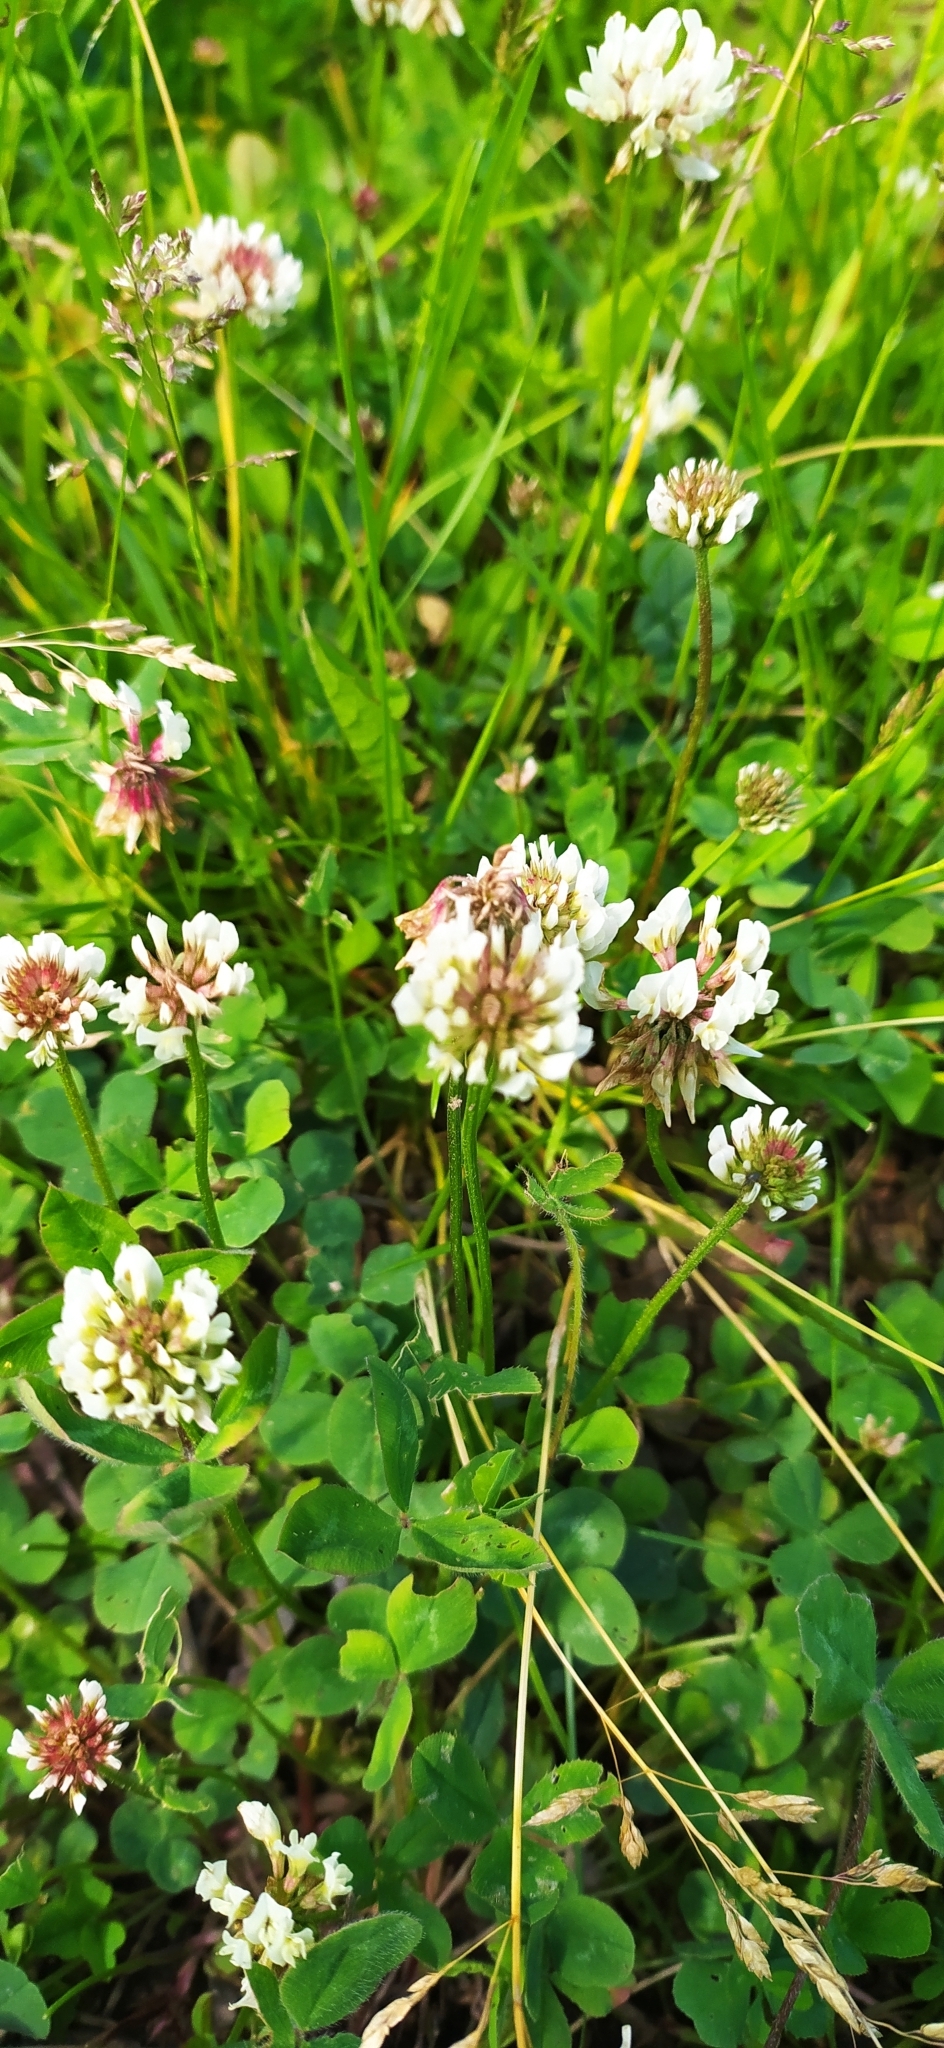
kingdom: Plantae
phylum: Tracheophyta
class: Magnoliopsida
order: Fabales
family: Fabaceae
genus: Trifolium
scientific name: Trifolium repens
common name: White clover
